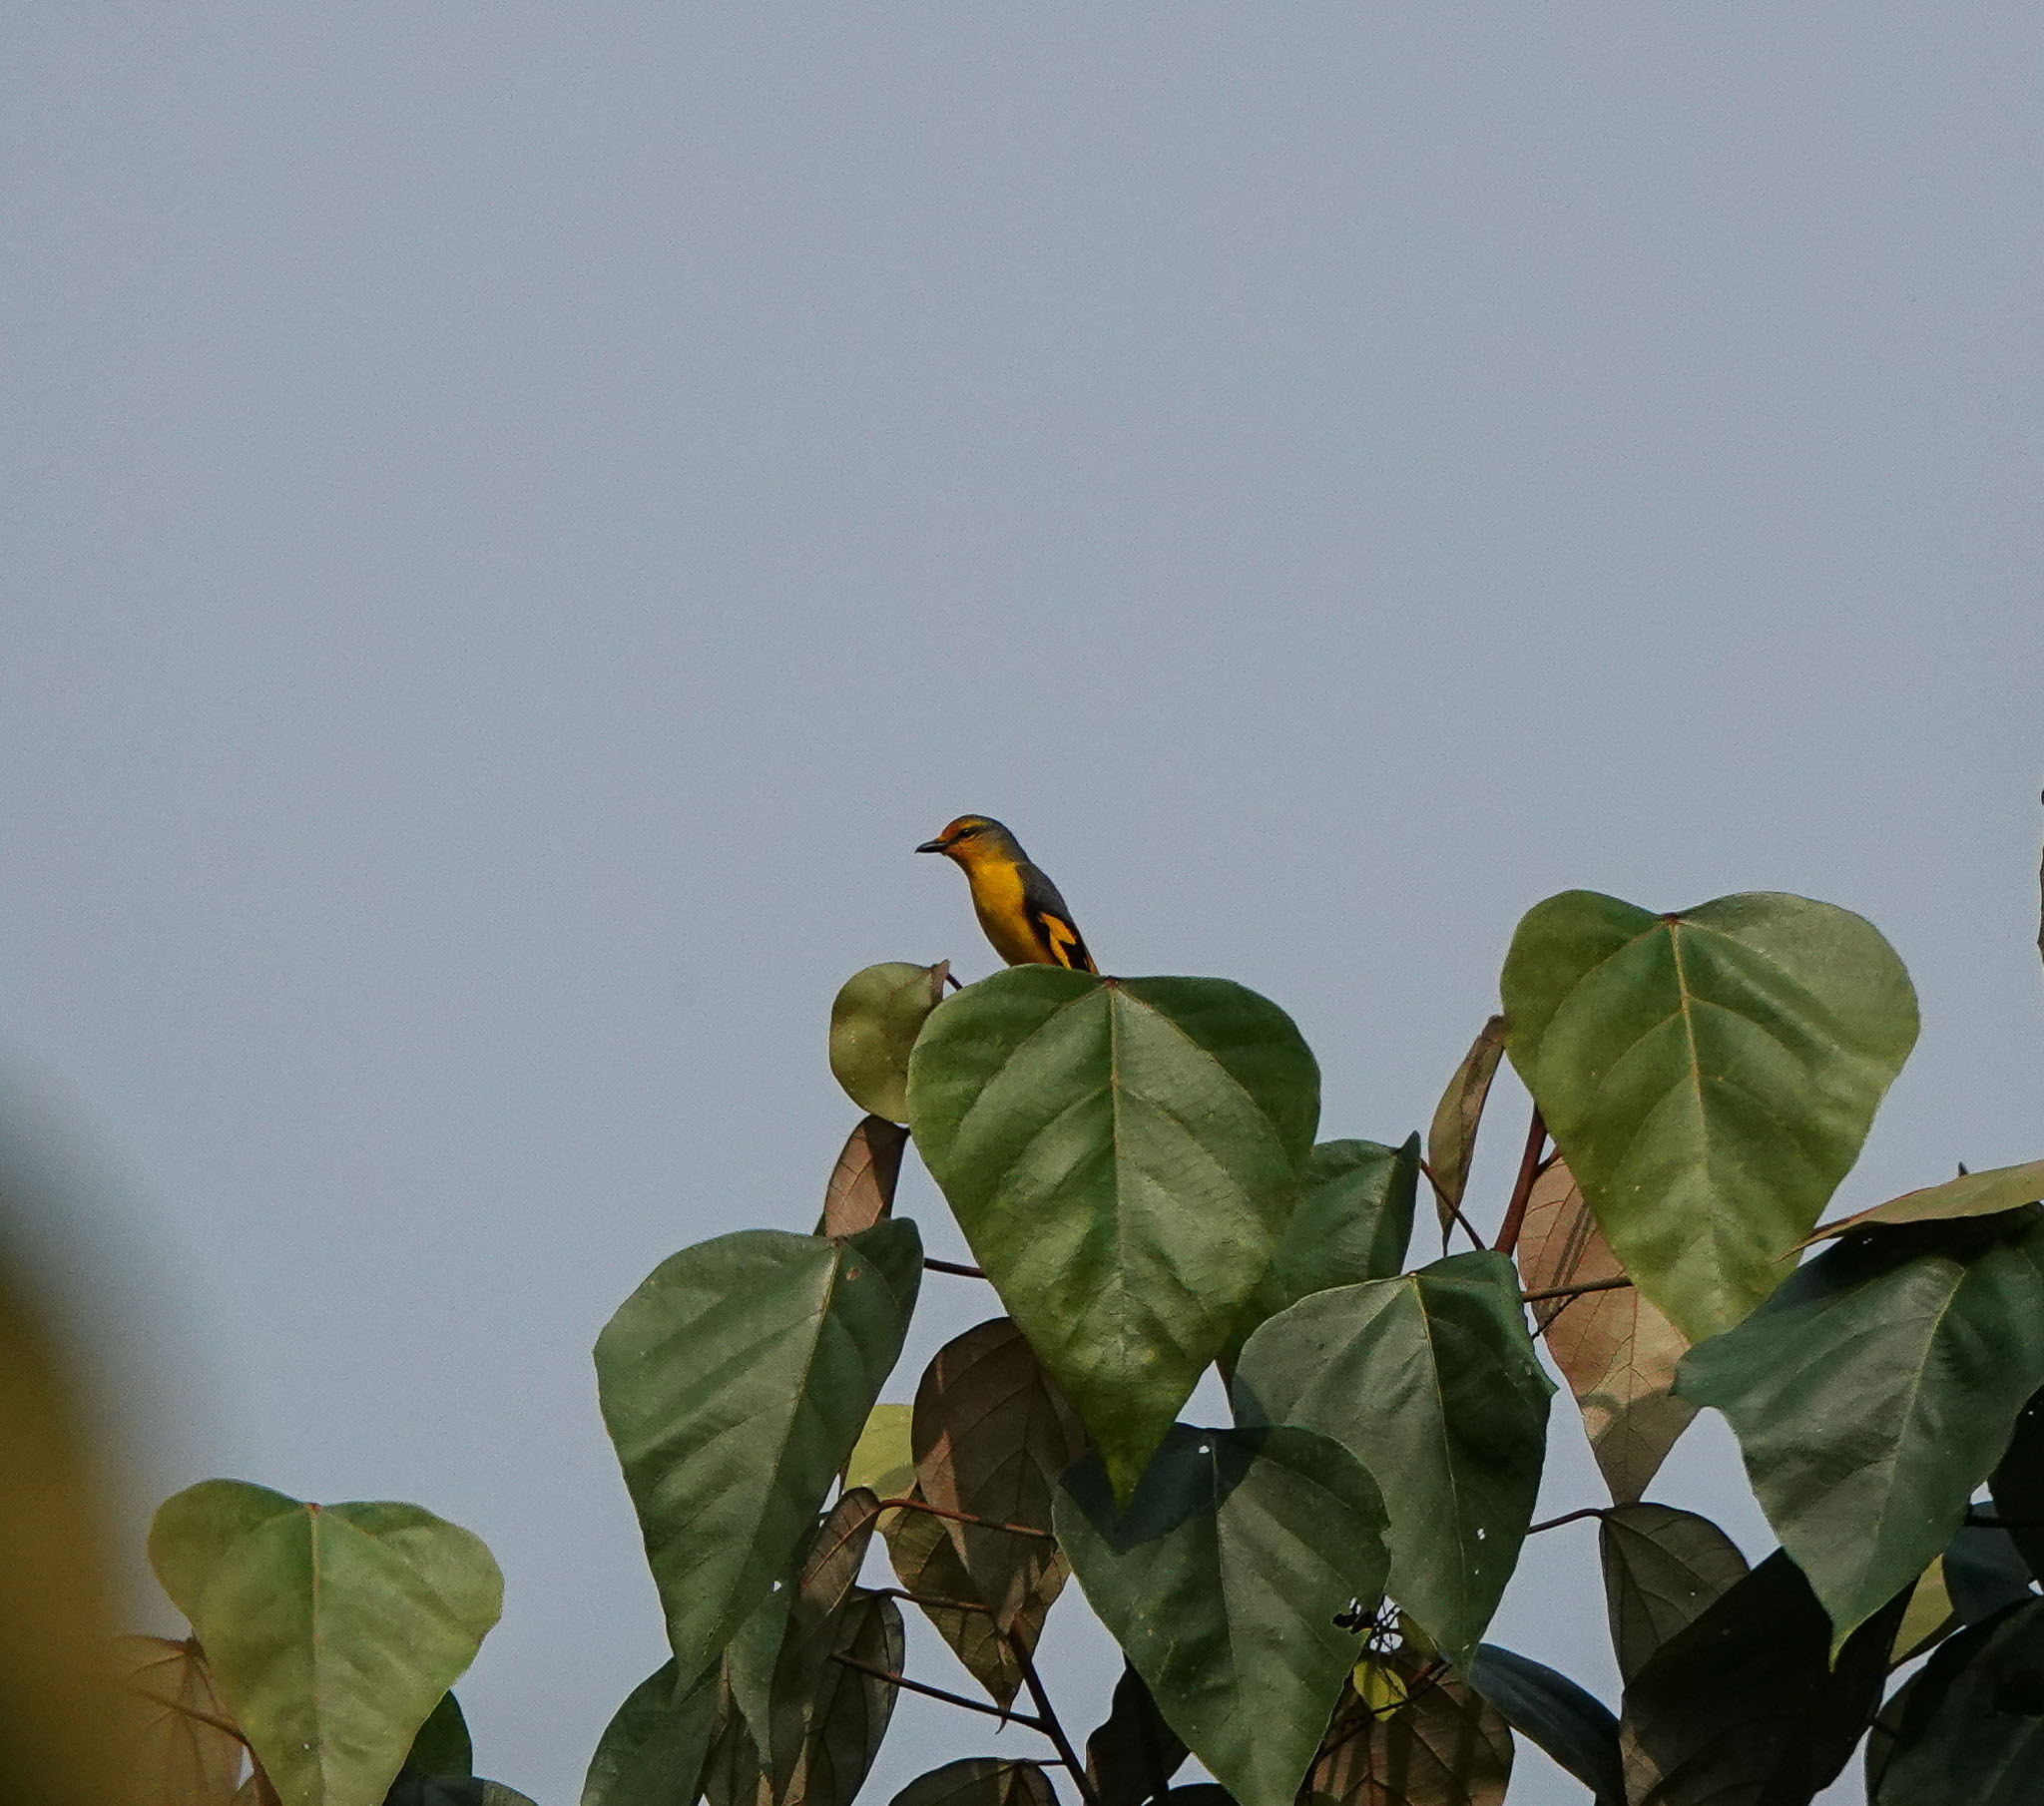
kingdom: Animalia
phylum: Chordata
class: Aves
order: Passeriformes
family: Campephagidae
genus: Pericrocotus
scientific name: Pericrocotus speciosus
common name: Scarlet minivet
